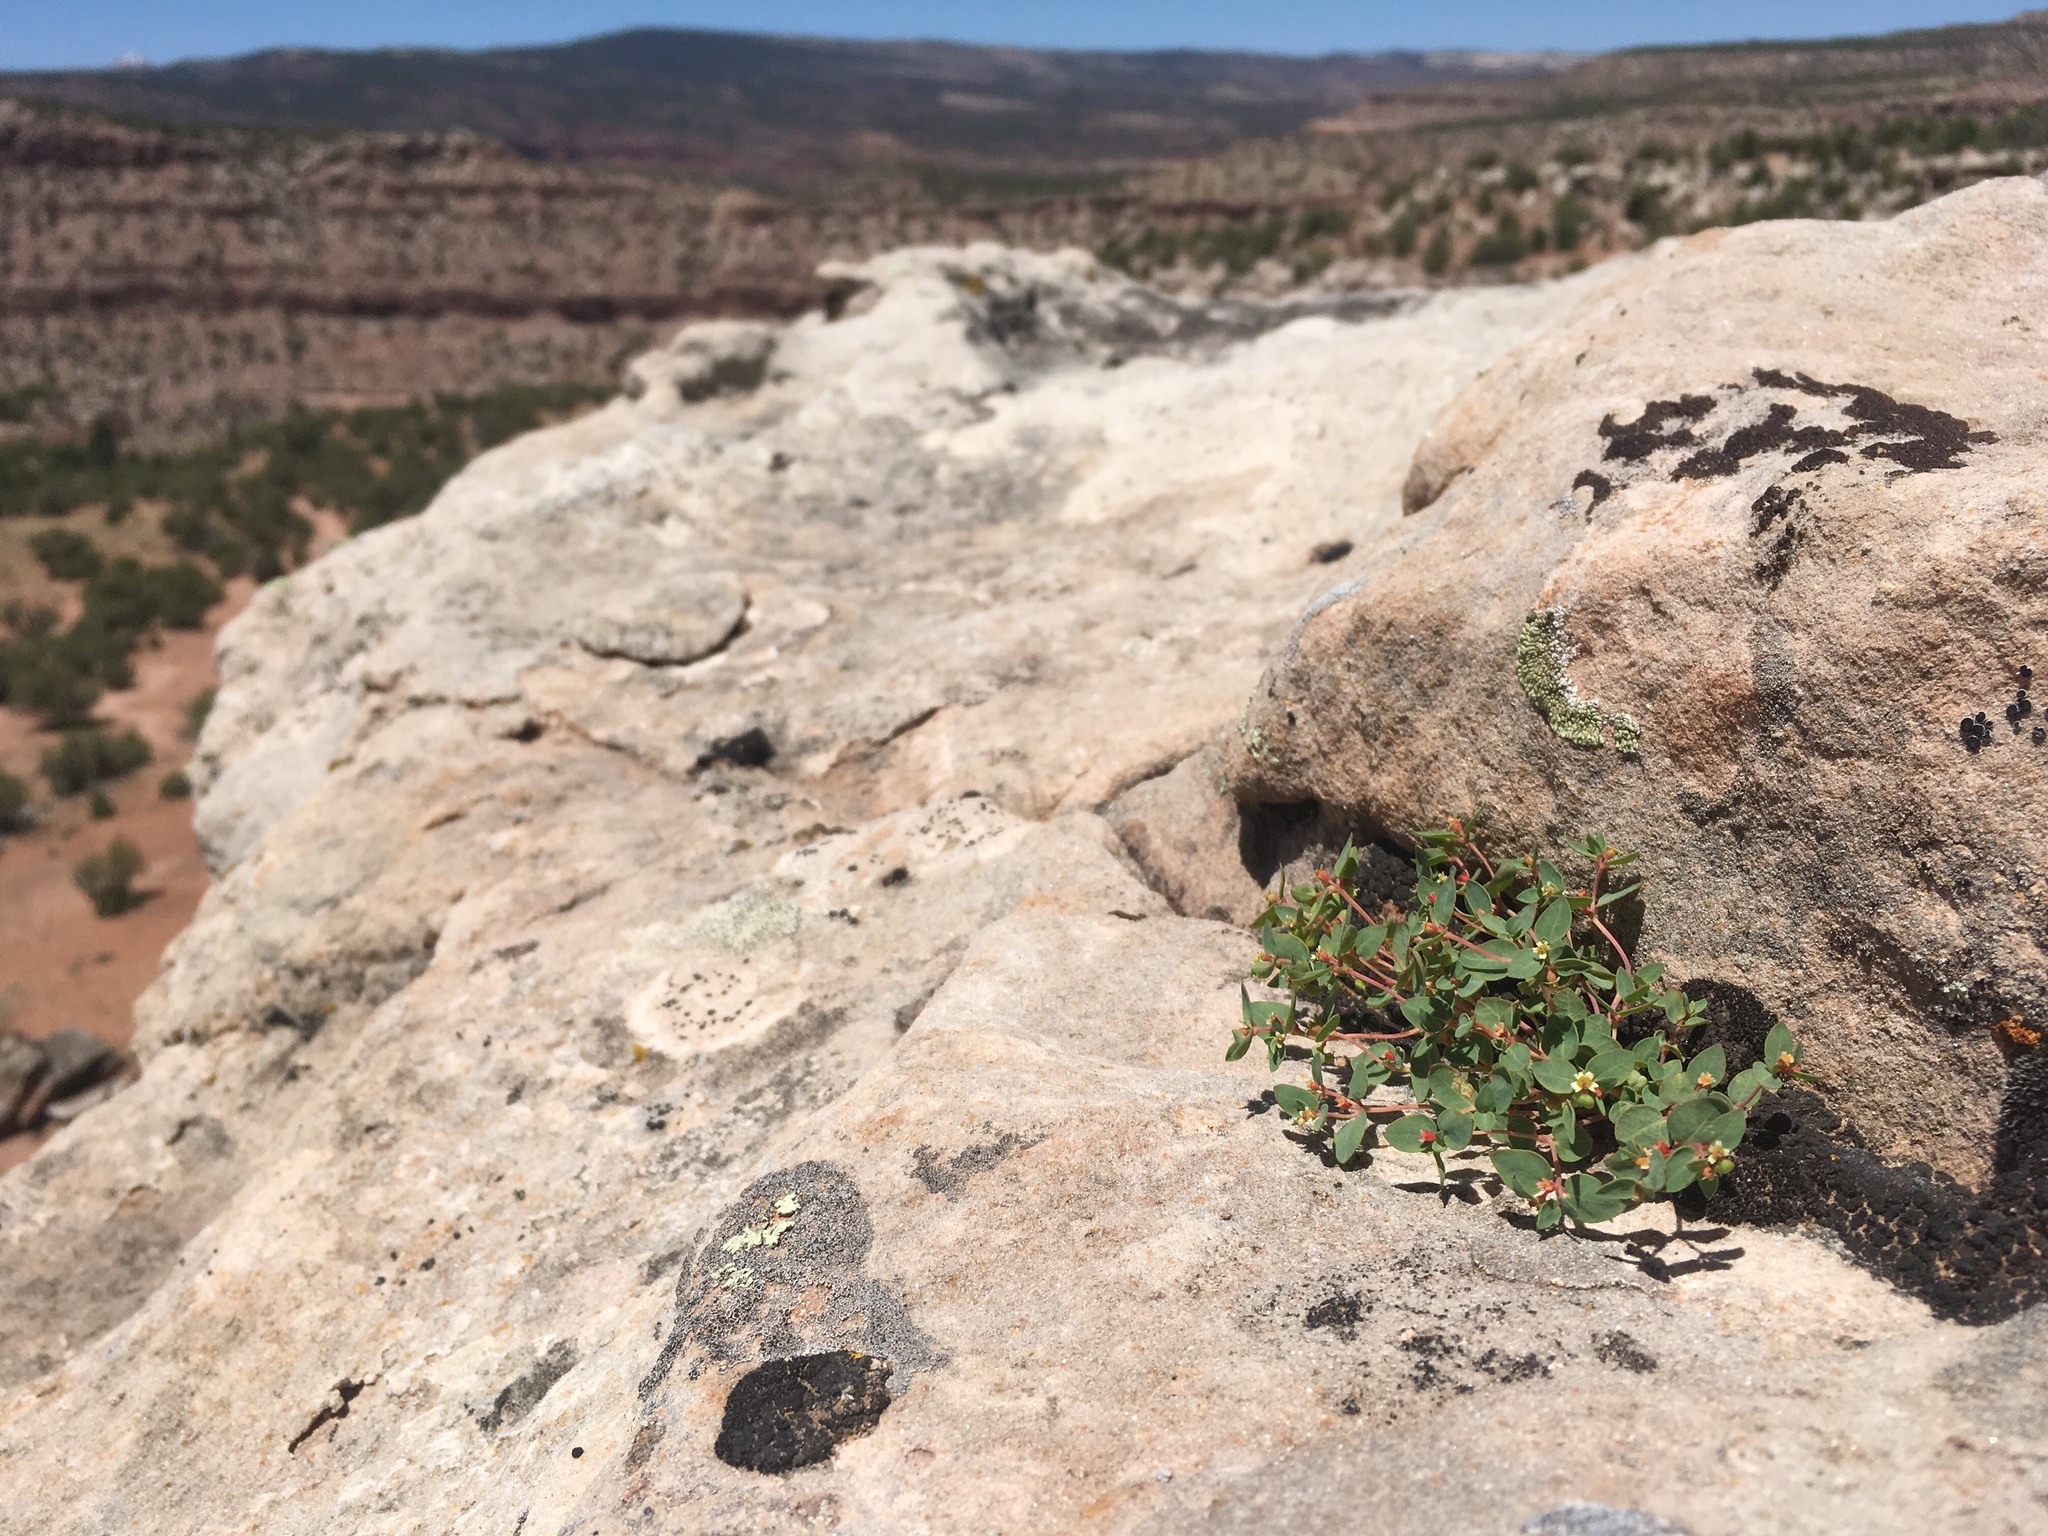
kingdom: Plantae
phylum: Tracheophyta
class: Magnoliopsida
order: Malpighiales
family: Euphorbiaceae
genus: Euphorbia
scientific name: Euphorbia fendleri
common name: Fendler's euphorbia
